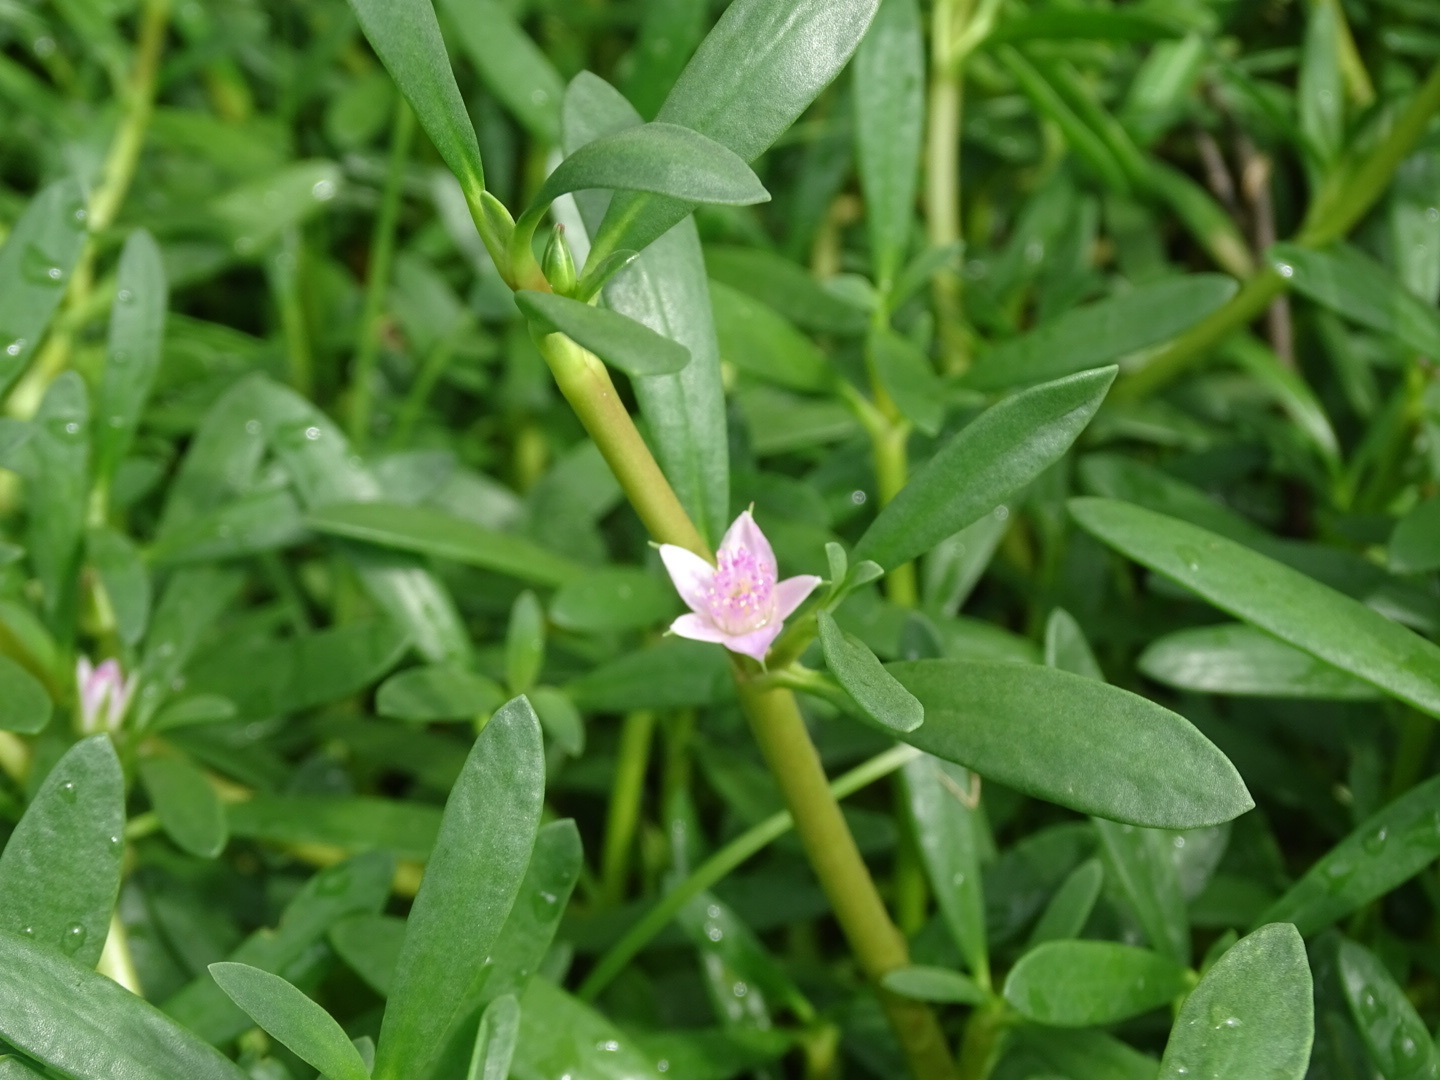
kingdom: Plantae
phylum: Tracheophyta
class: Magnoliopsida
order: Caryophyllales
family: Aizoaceae
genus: Sesuvium
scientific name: Sesuvium portulacastrum
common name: Sea-purslane
